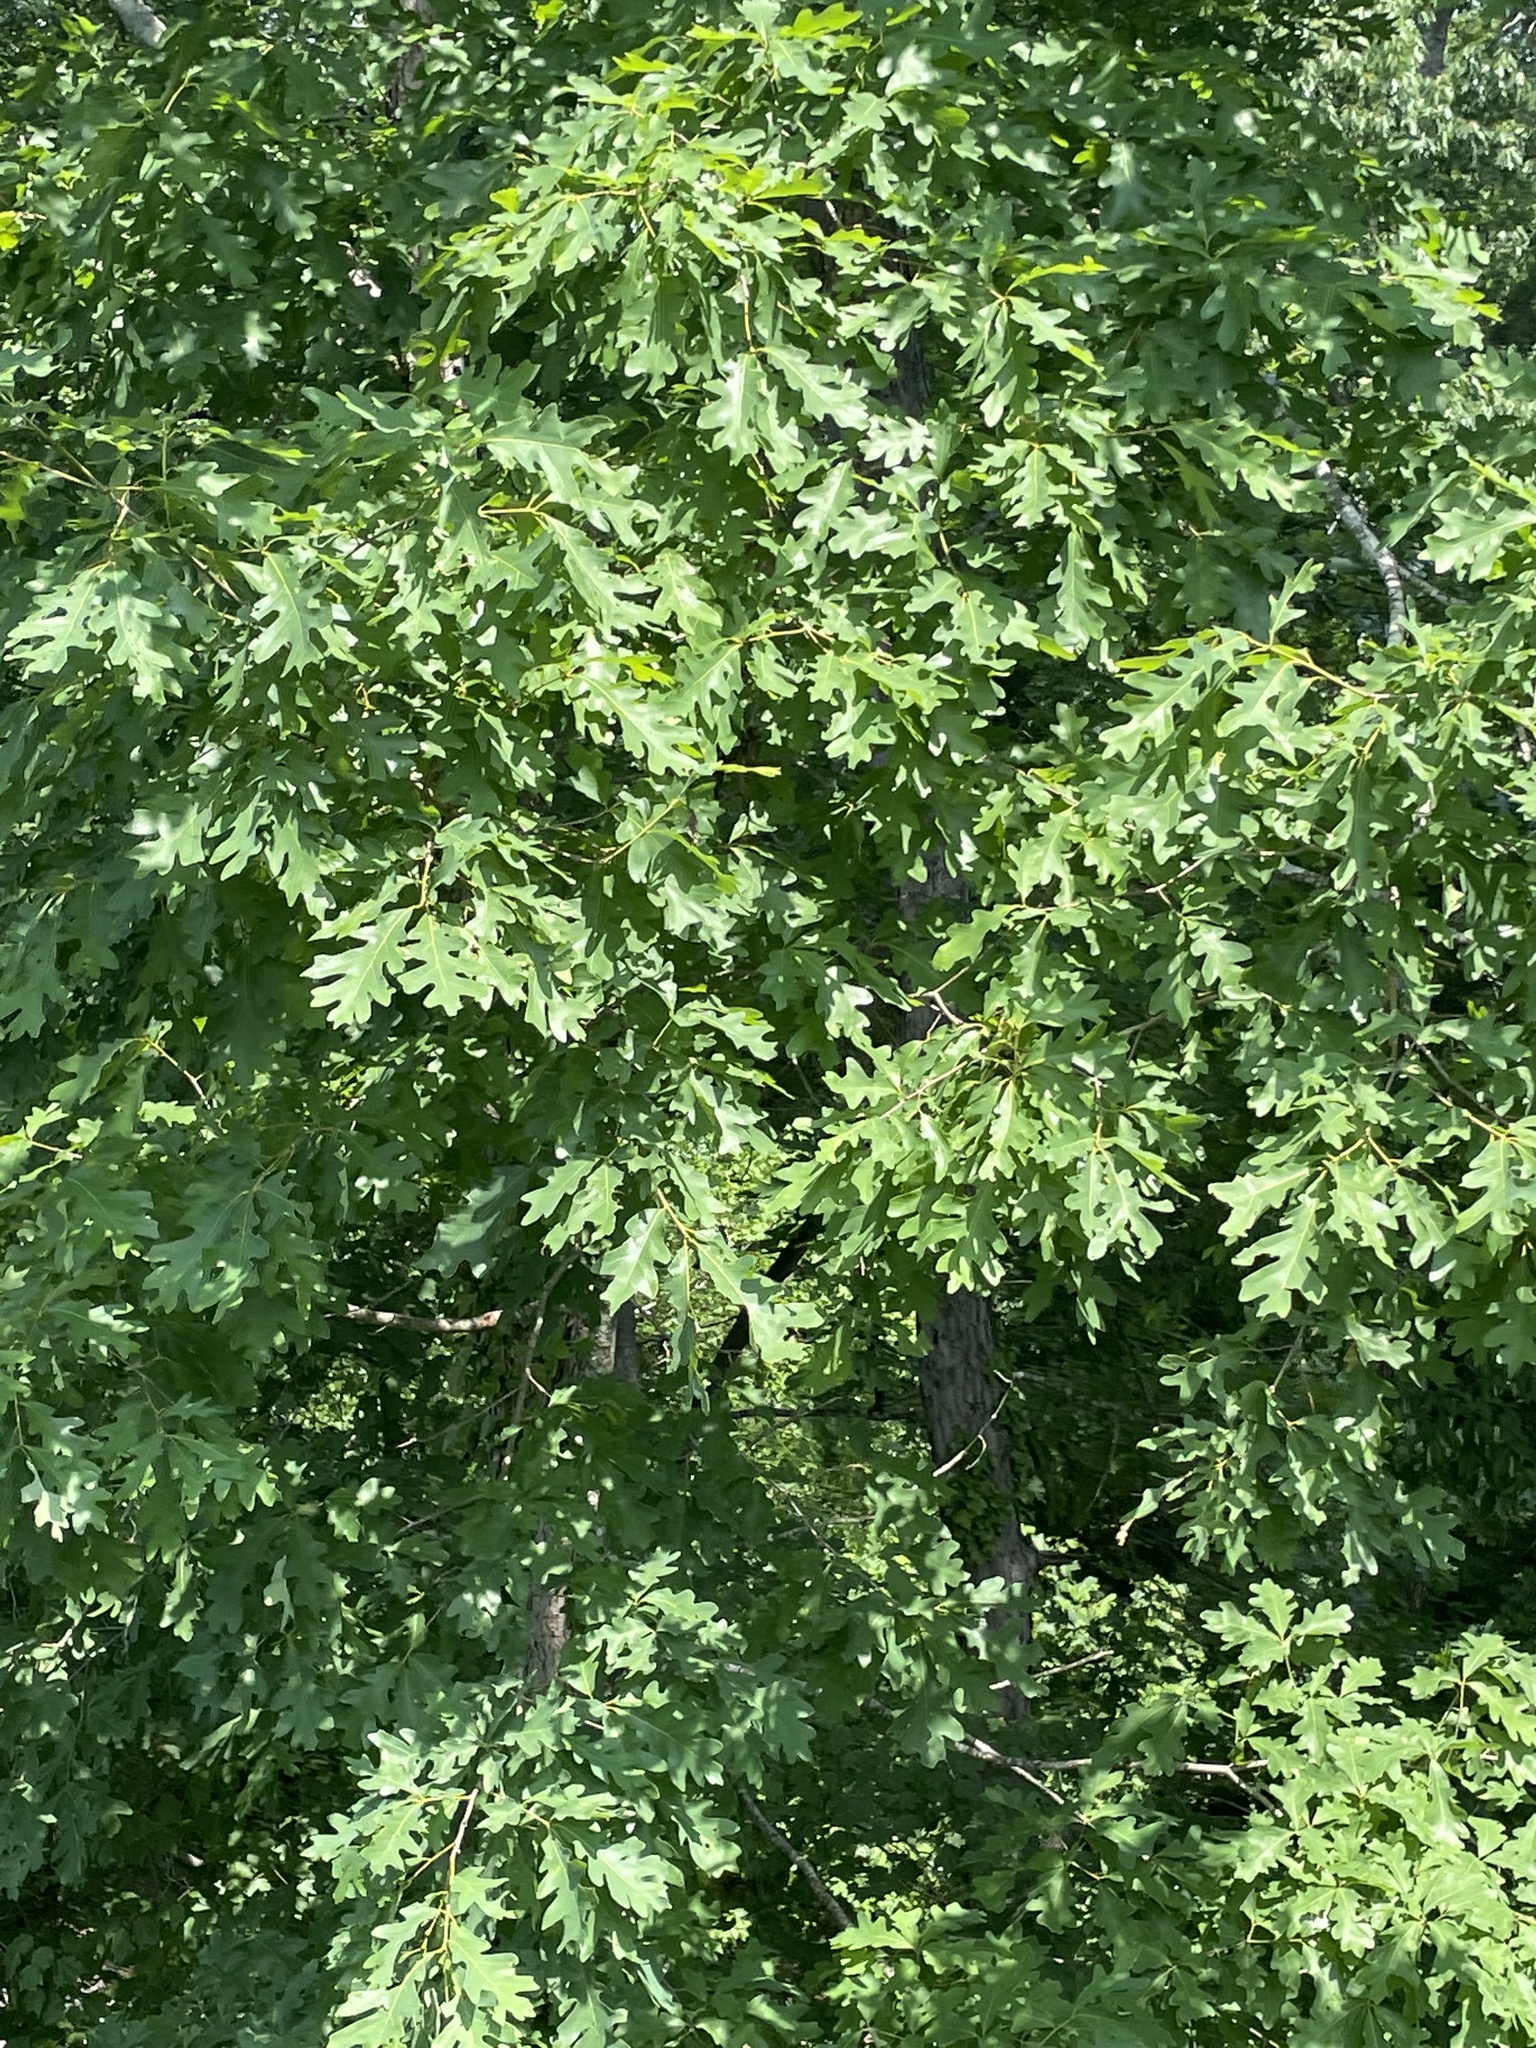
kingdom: Plantae
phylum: Tracheophyta
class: Magnoliopsida
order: Fagales
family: Fagaceae
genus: Quercus
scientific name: Quercus alba
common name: White oak
